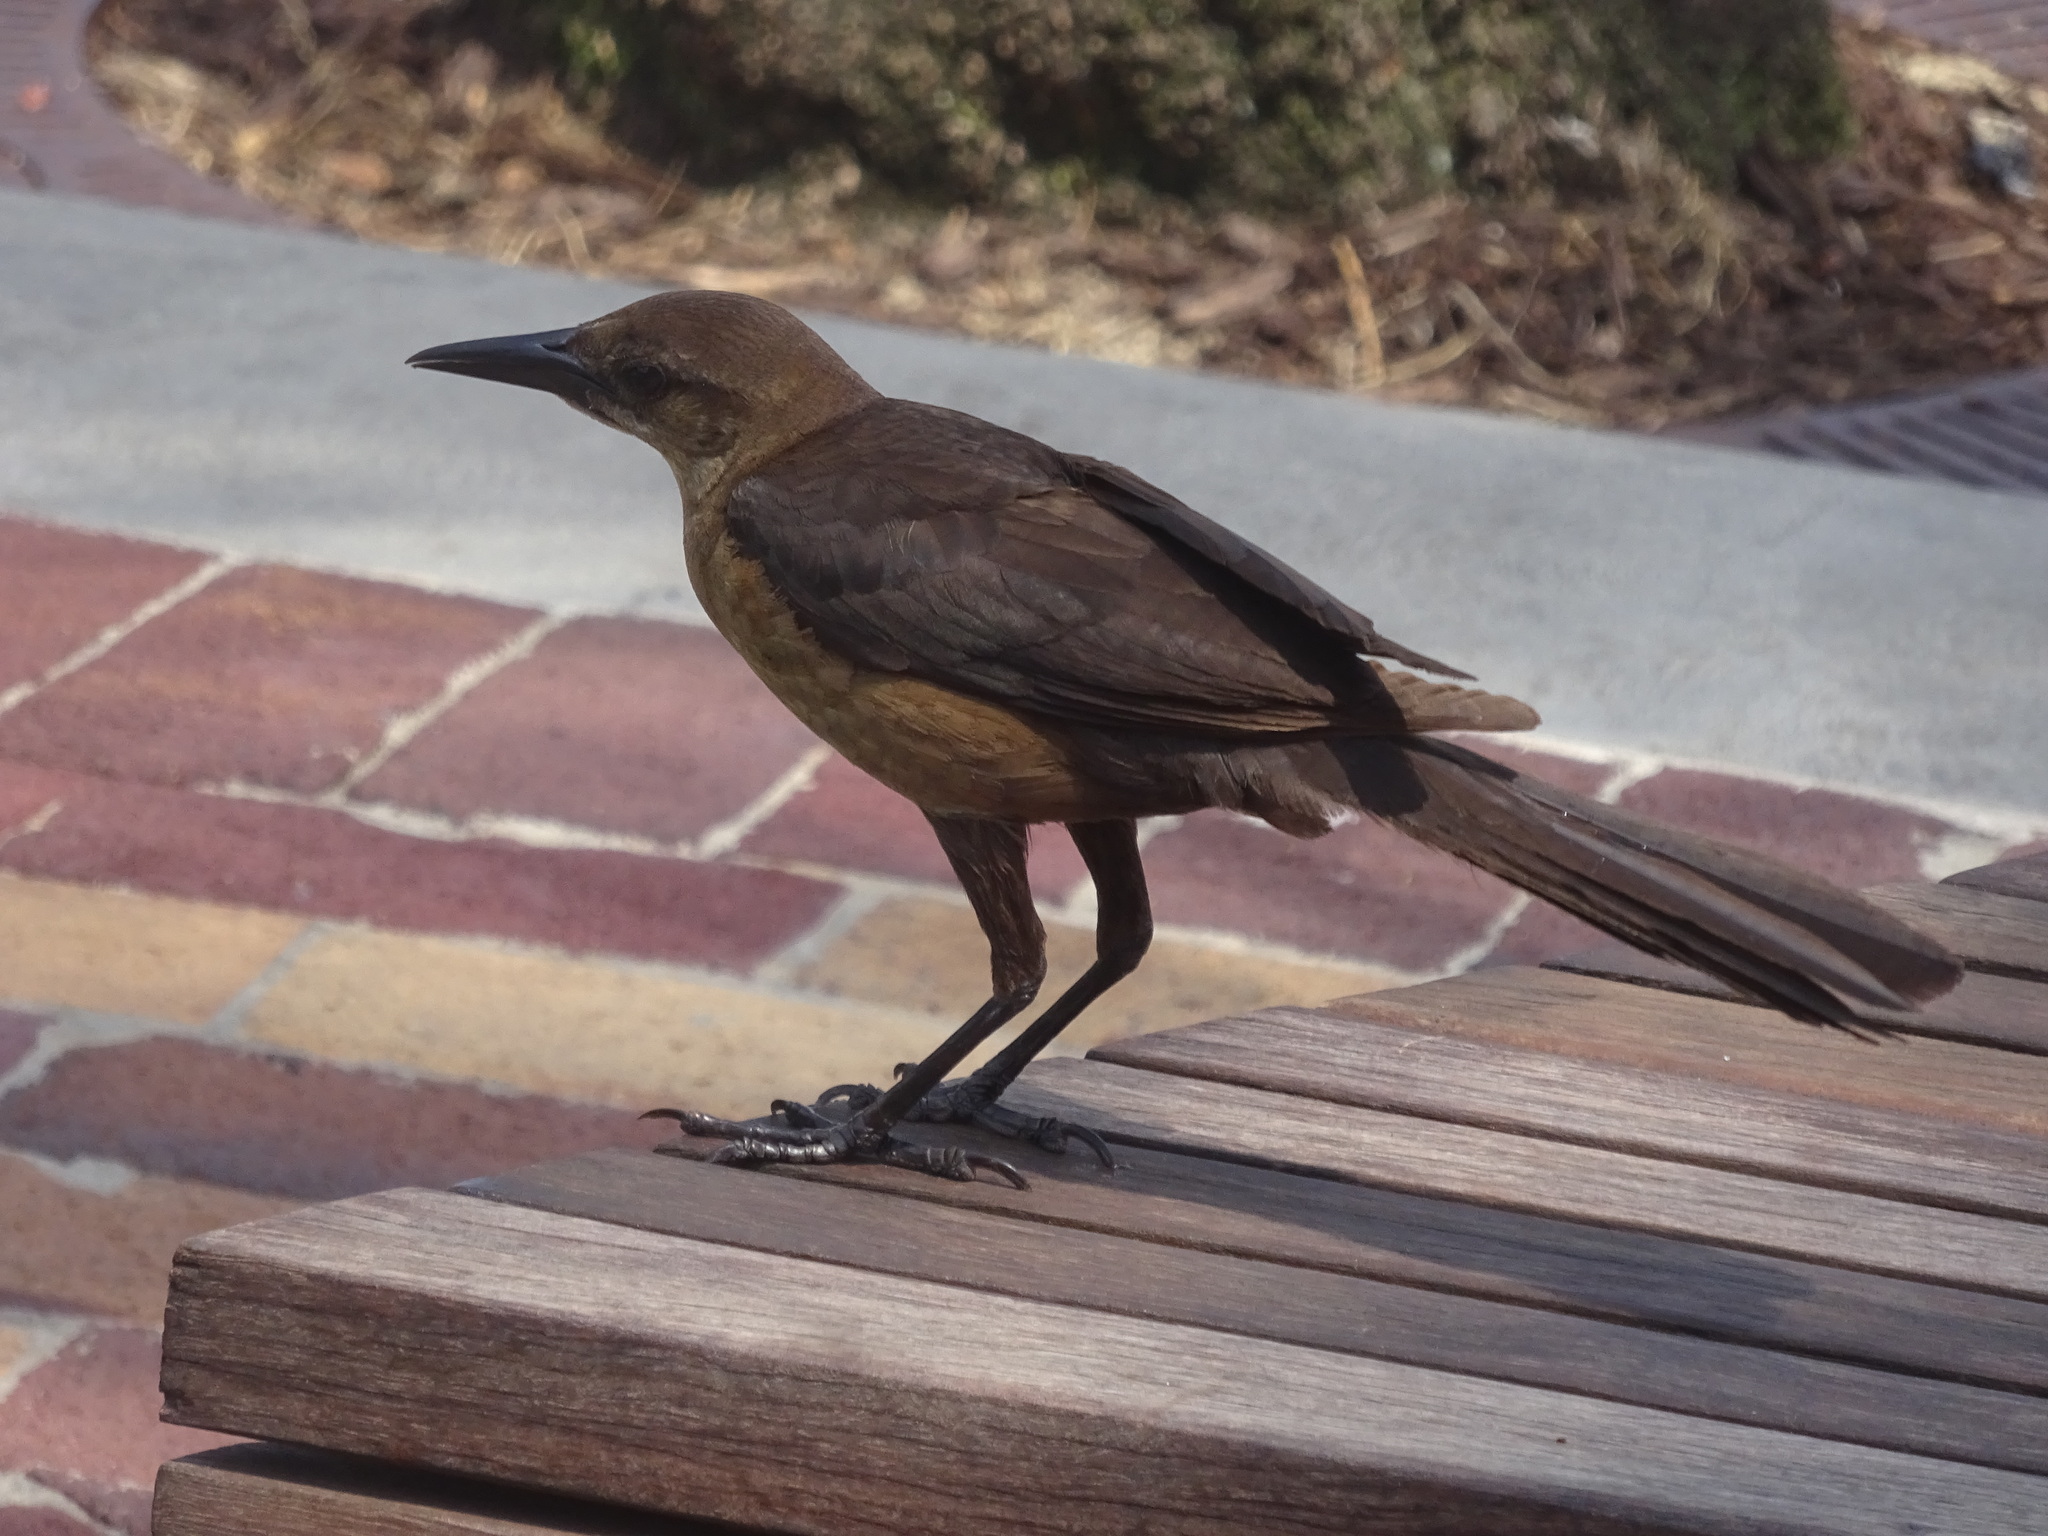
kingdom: Animalia
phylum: Chordata
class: Aves
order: Passeriformes
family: Icteridae
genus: Quiscalus
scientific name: Quiscalus major
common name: Boat-tailed grackle
